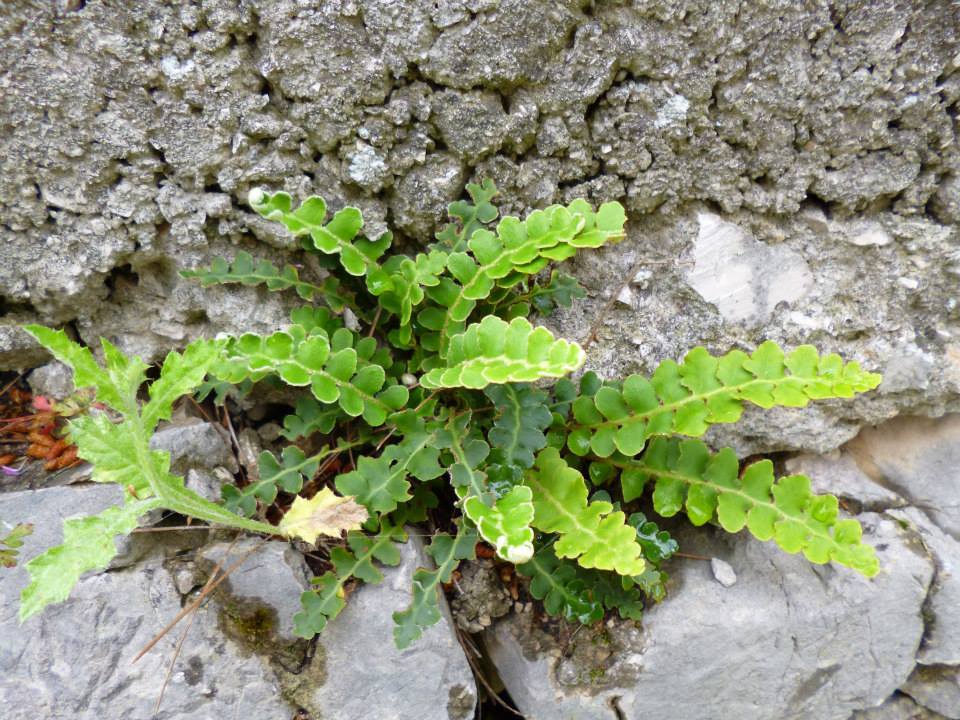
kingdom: Plantae
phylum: Tracheophyta
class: Polypodiopsida
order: Polypodiales
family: Aspleniaceae
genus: Asplenium
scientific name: Asplenium ceterach
